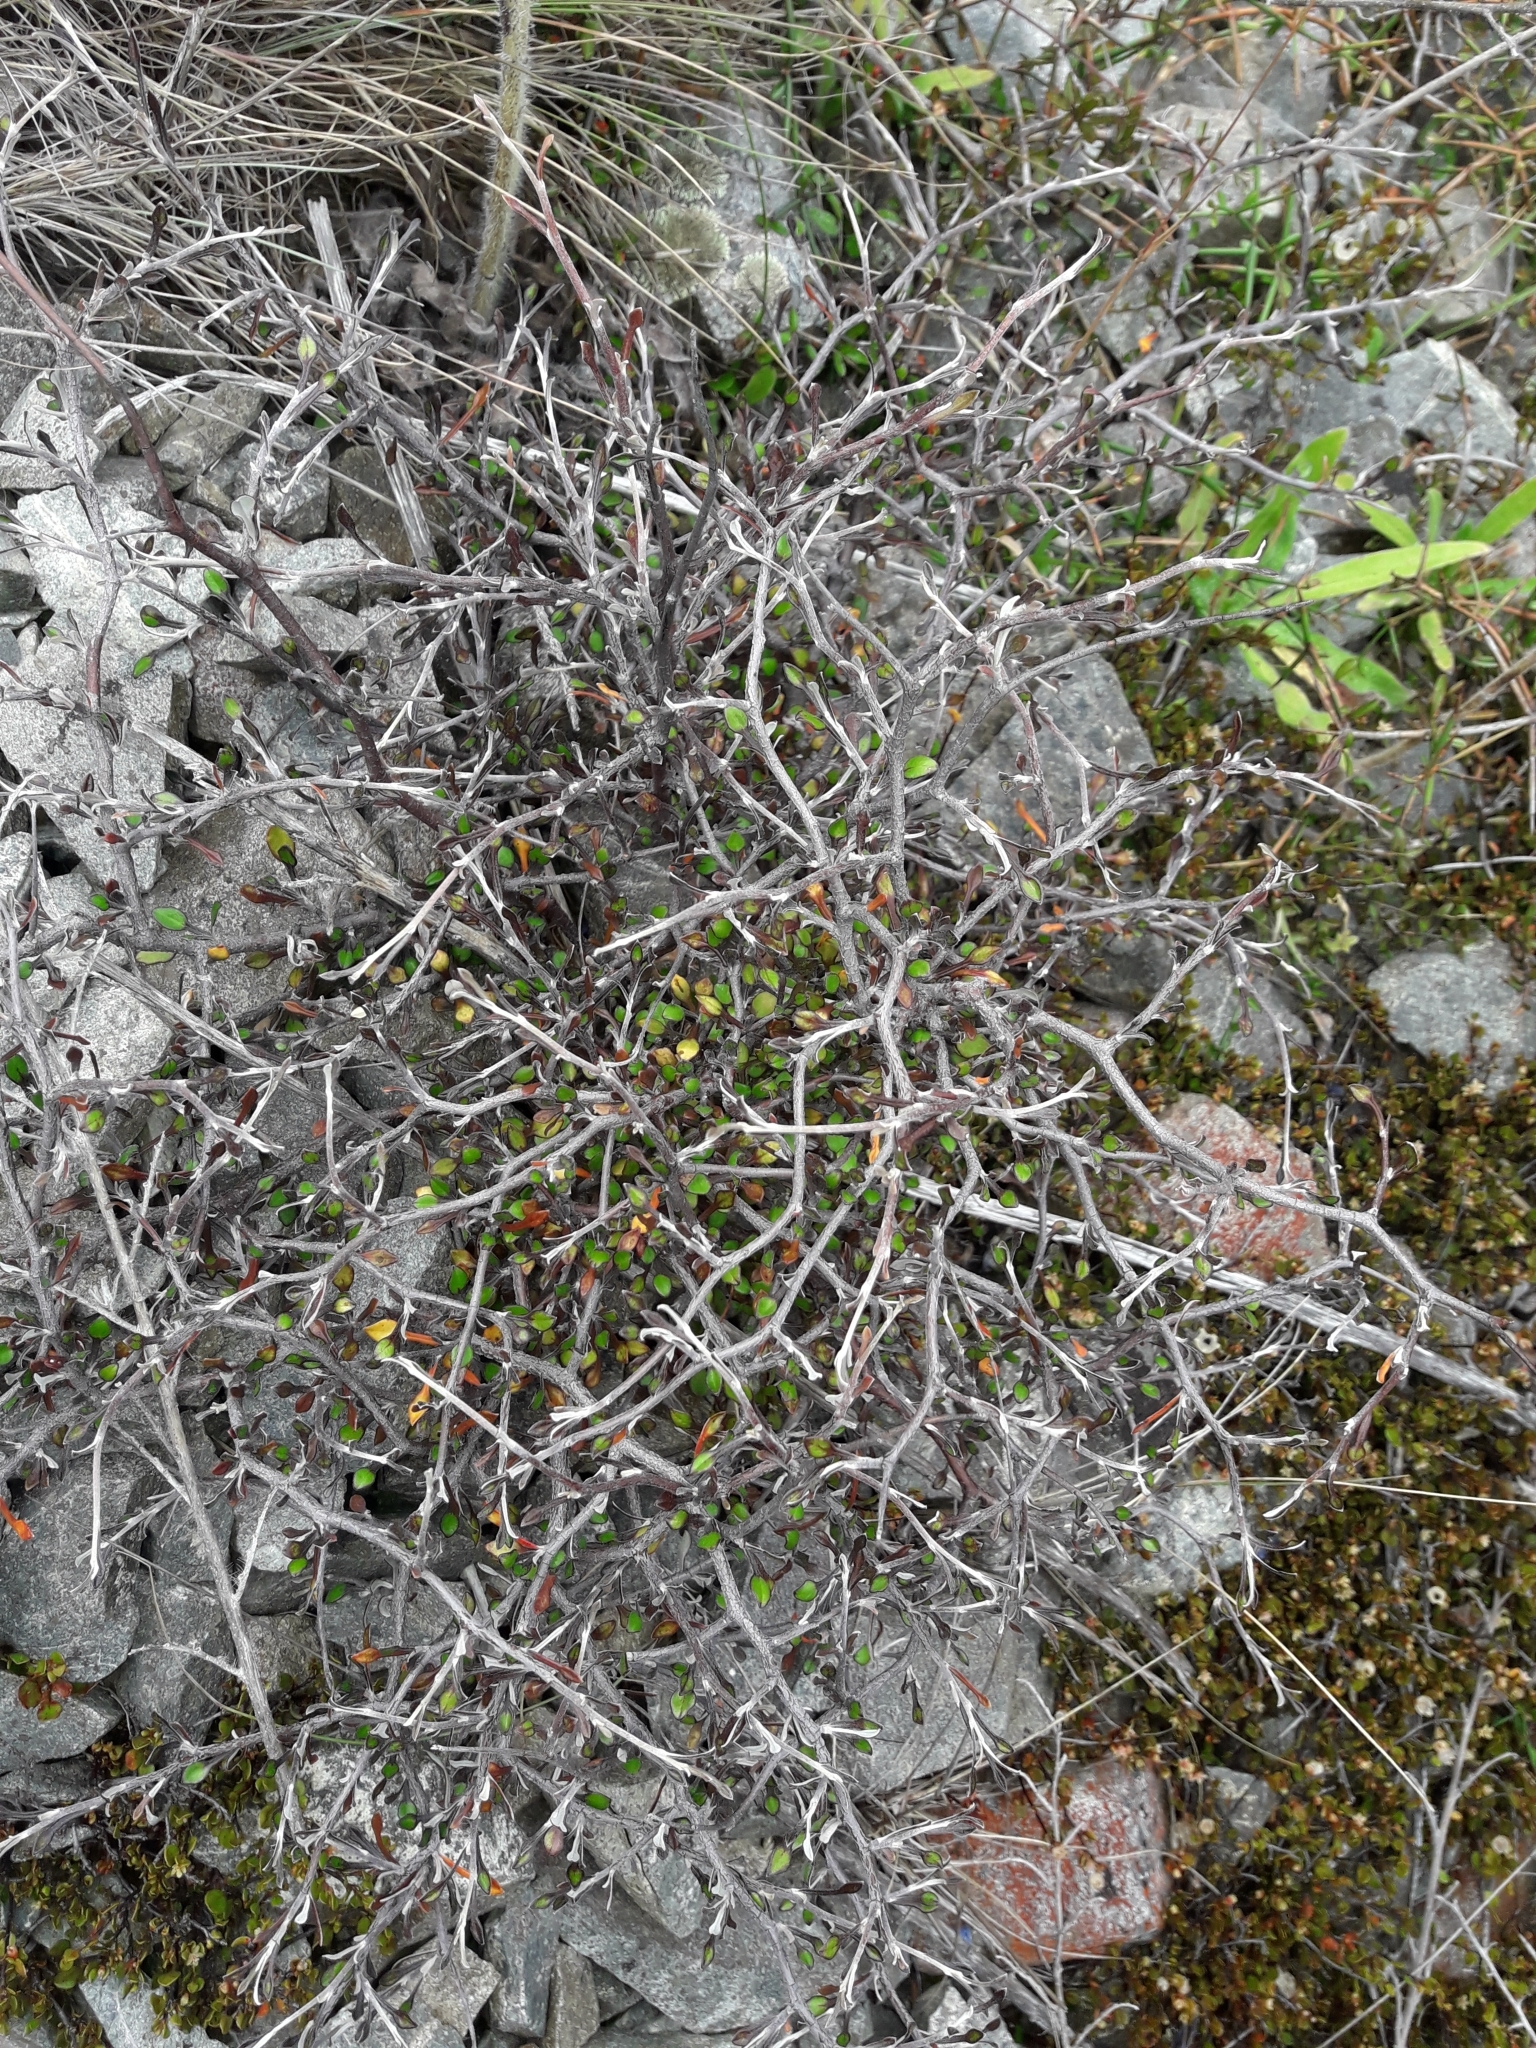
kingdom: Plantae
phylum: Tracheophyta
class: Magnoliopsida
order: Asterales
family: Argophyllaceae
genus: Corokia
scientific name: Corokia cotoneaster
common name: Wire nettingbush
